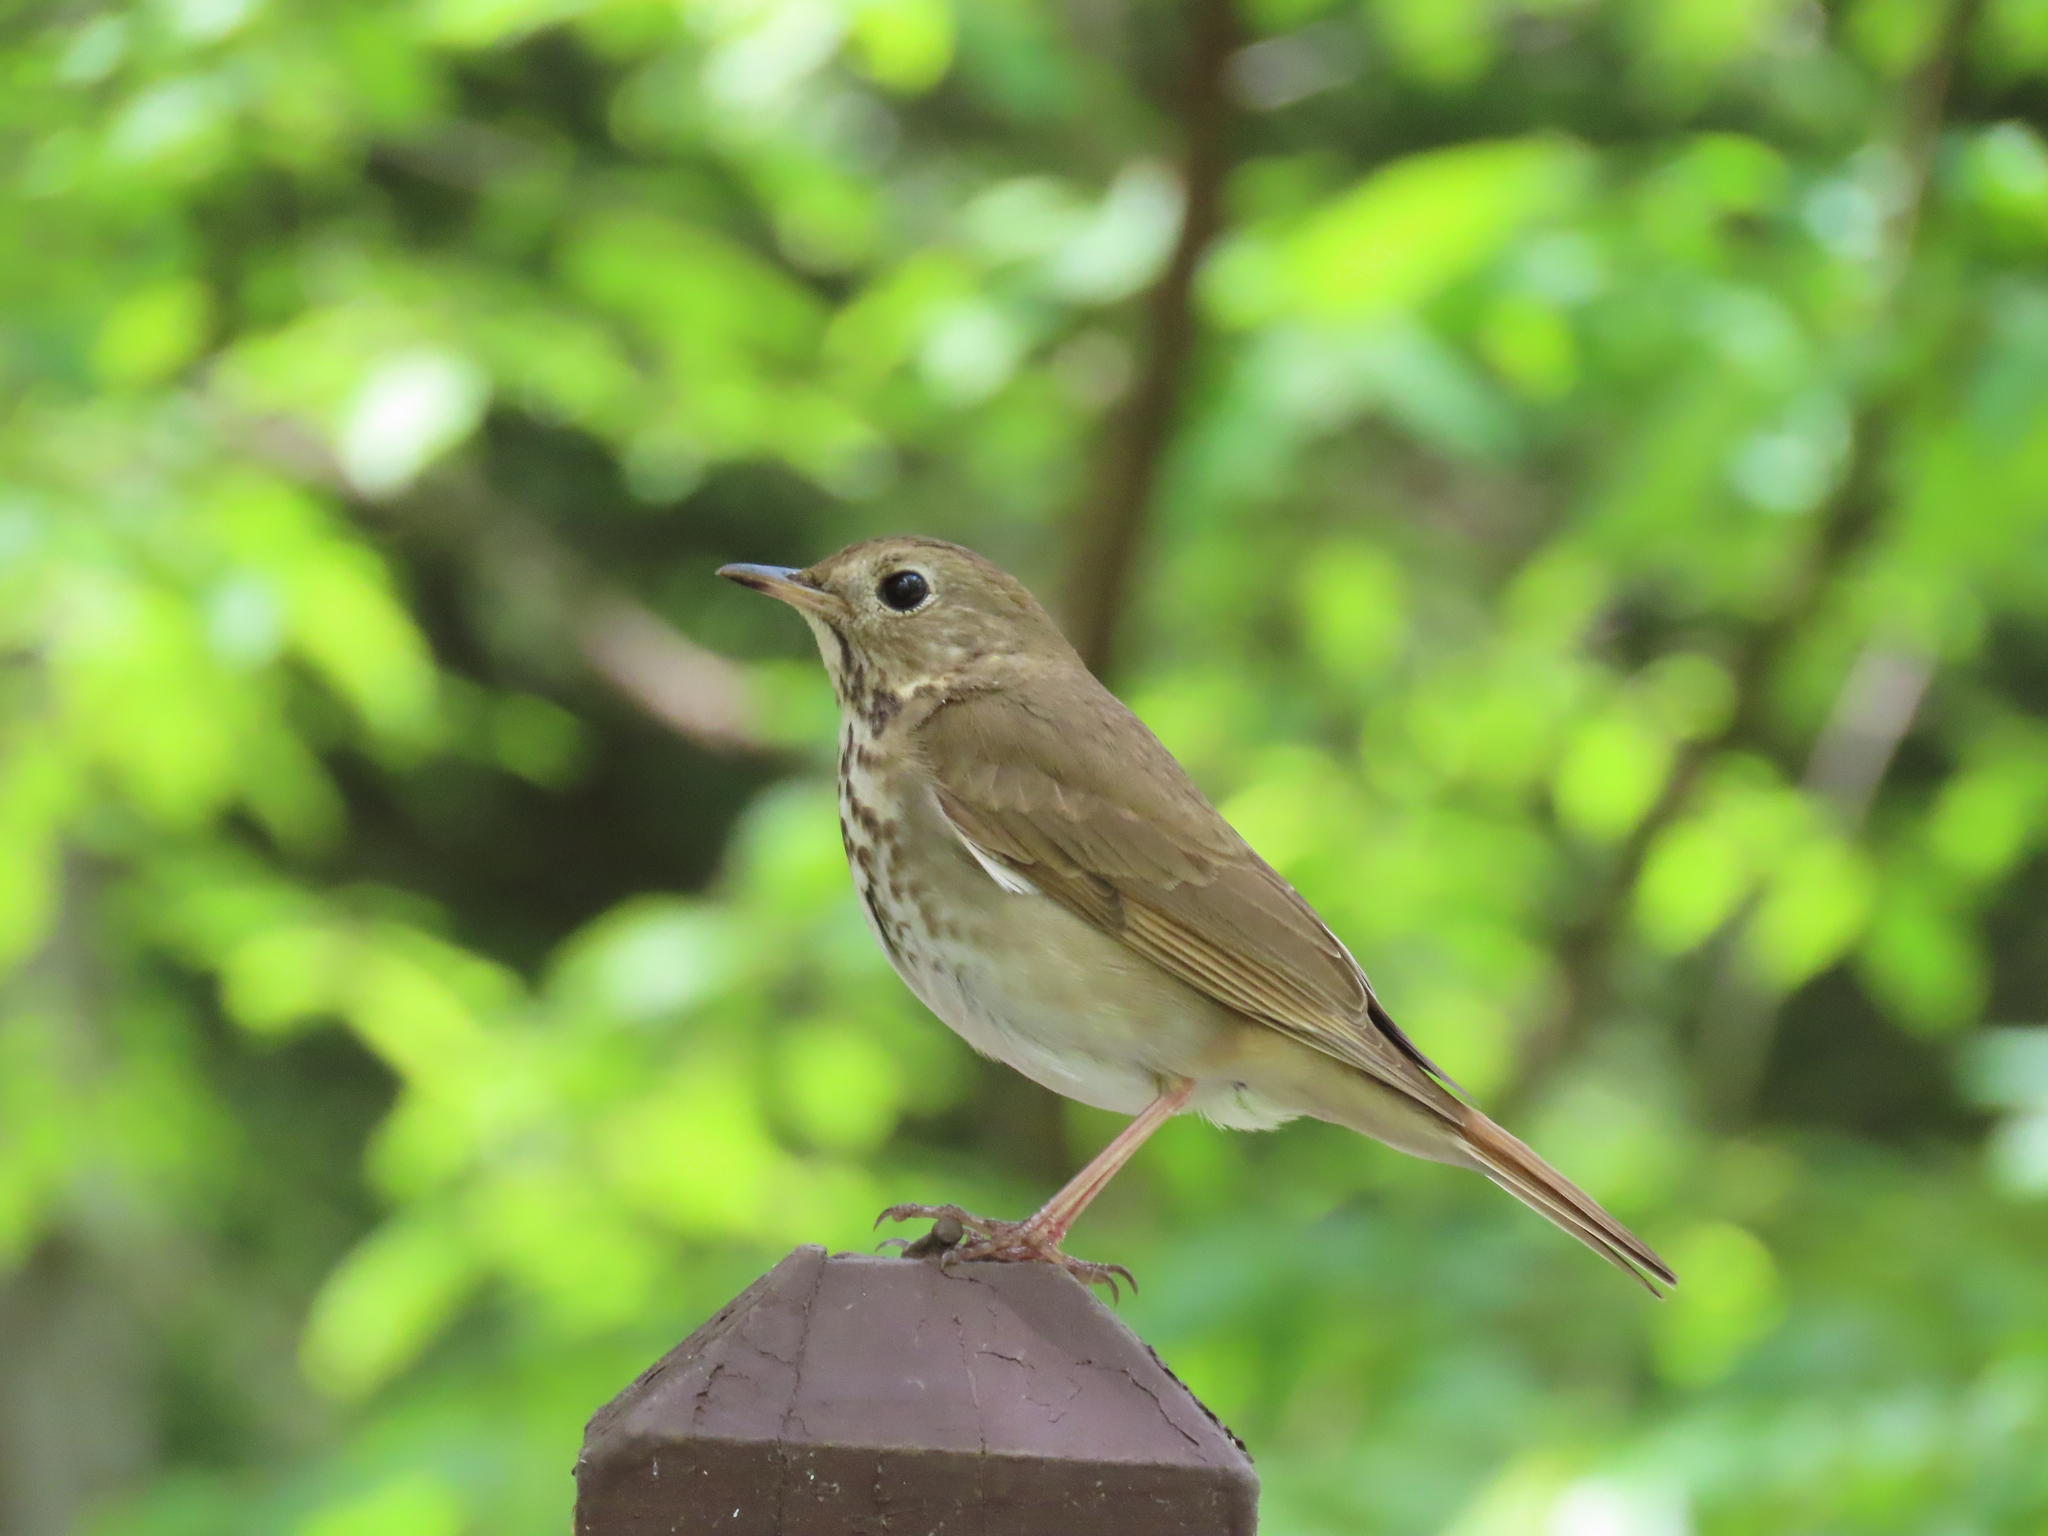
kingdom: Animalia
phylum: Chordata
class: Aves
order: Passeriformes
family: Turdidae
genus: Catharus
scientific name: Catharus guttatus
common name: Hermit thrush
